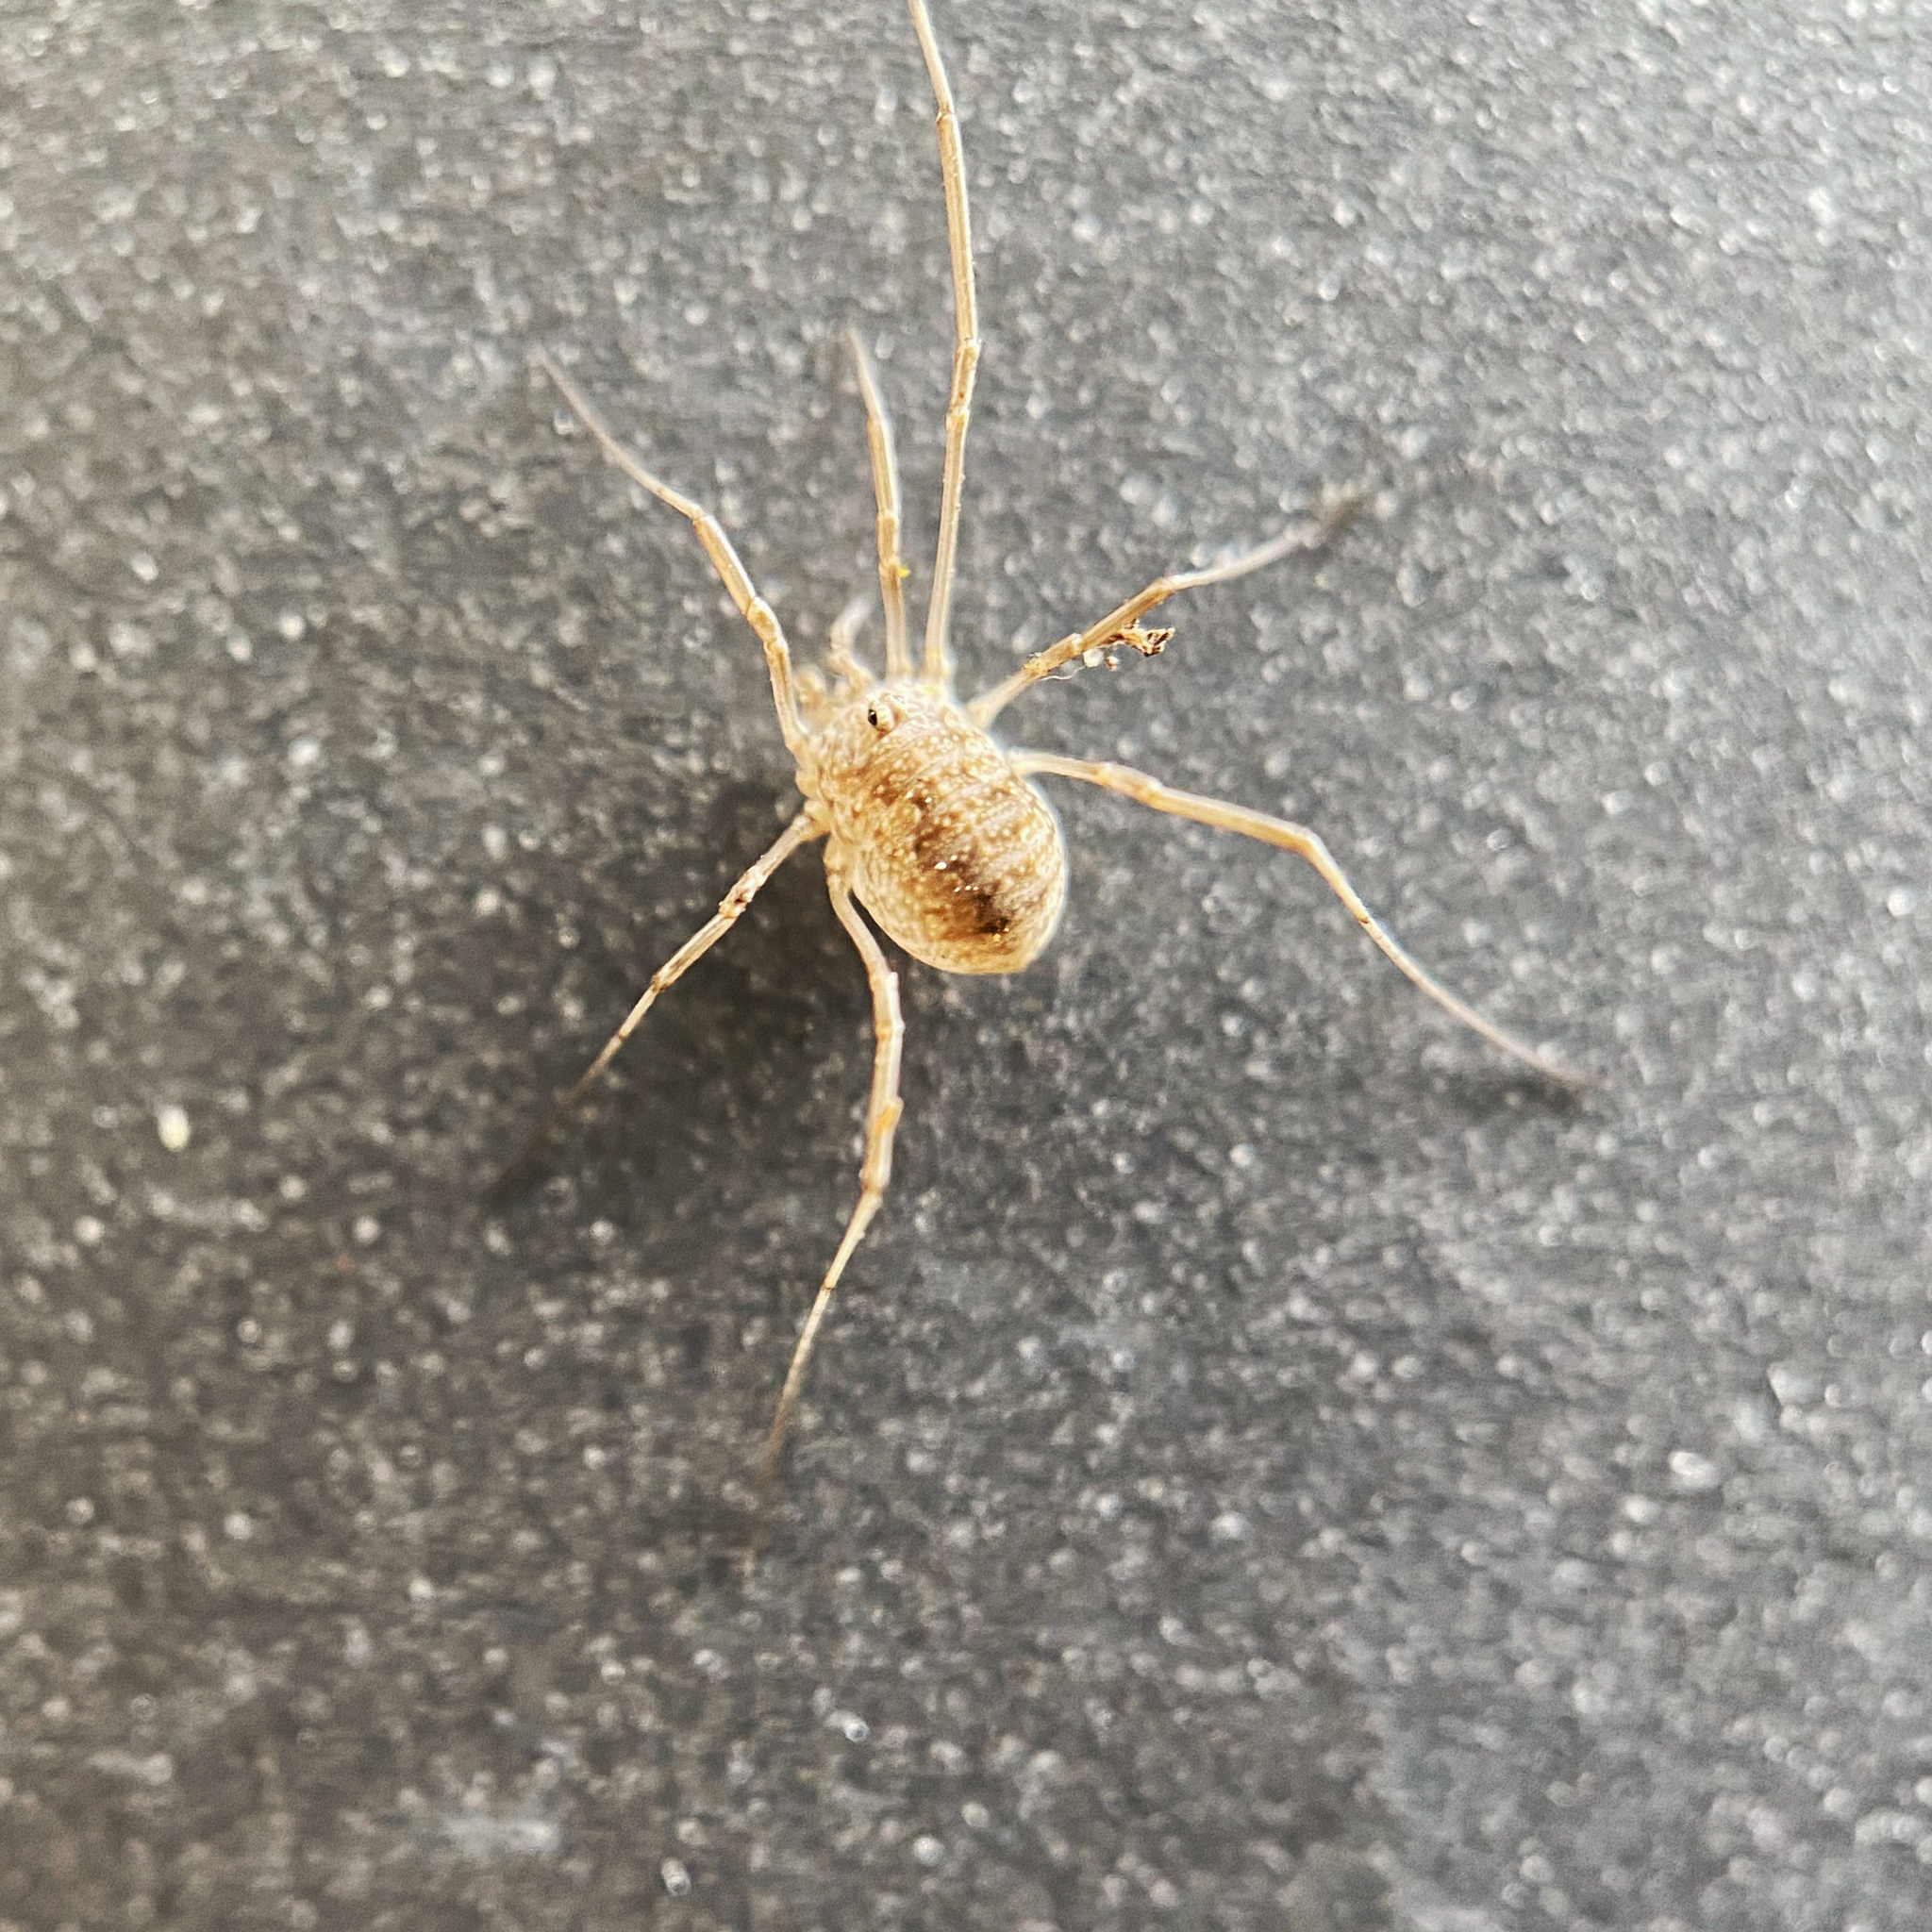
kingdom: Animalia
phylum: Arthropoda
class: Arachnida
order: Opiliones
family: Phalangiidae
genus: Phalangium
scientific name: Phalangium opilio
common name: Daddy longleg
